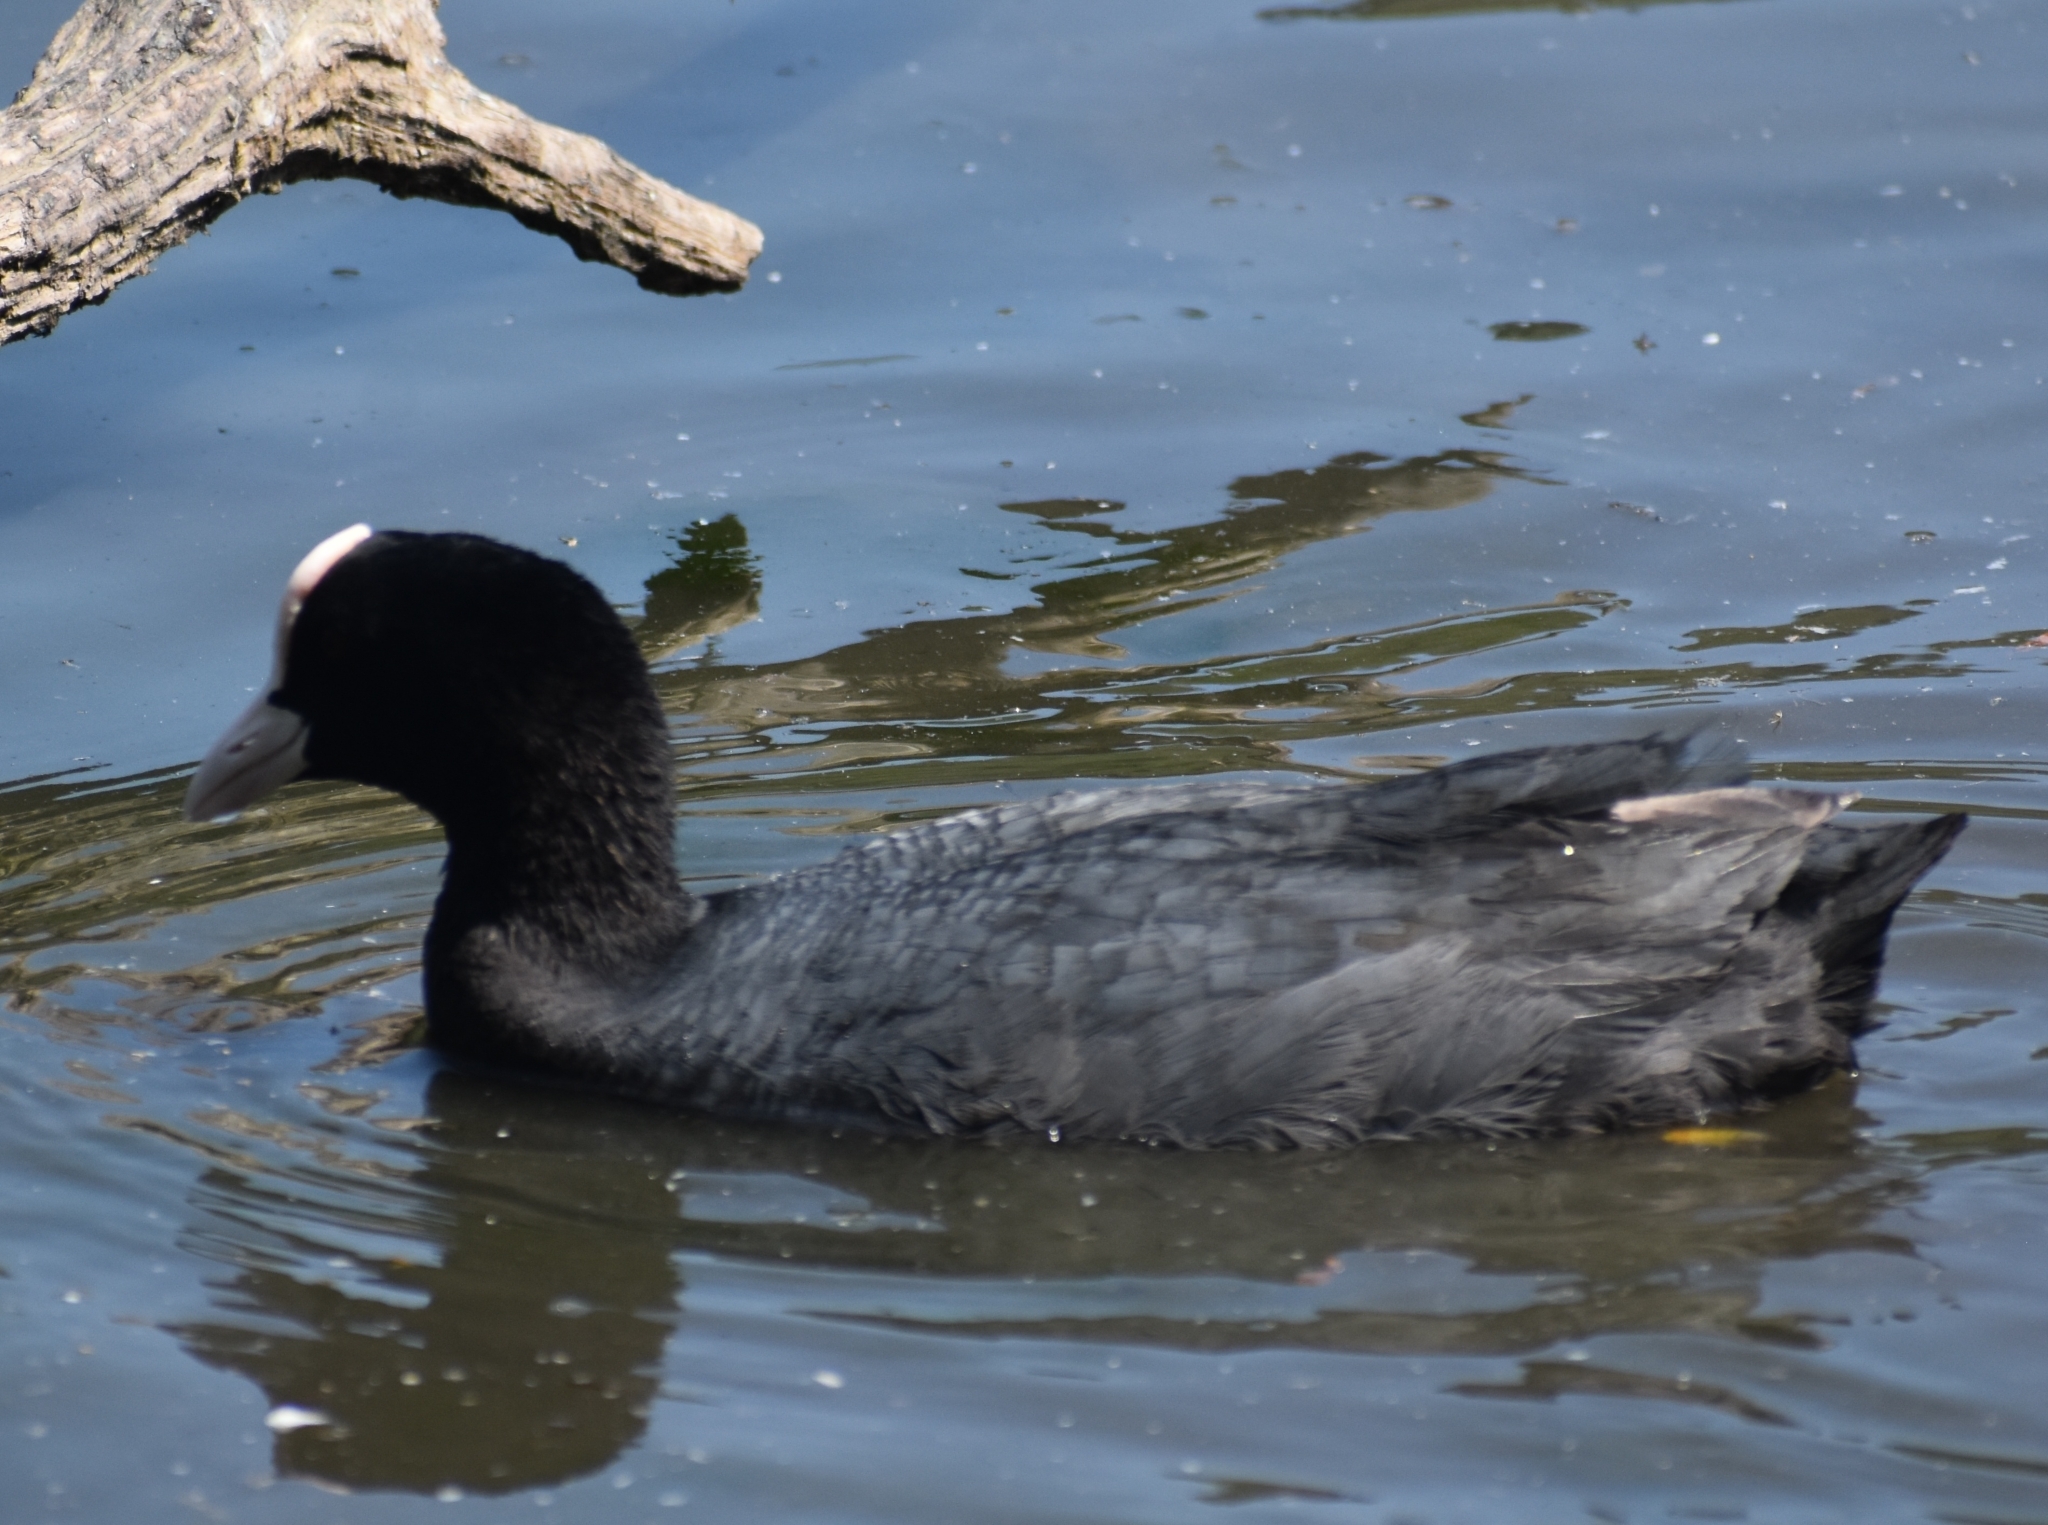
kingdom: Animalia
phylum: Chordata
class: Aves
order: Gruiformes
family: Rallidae
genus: Fulica
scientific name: Fulica atra
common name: Eurasian coot
